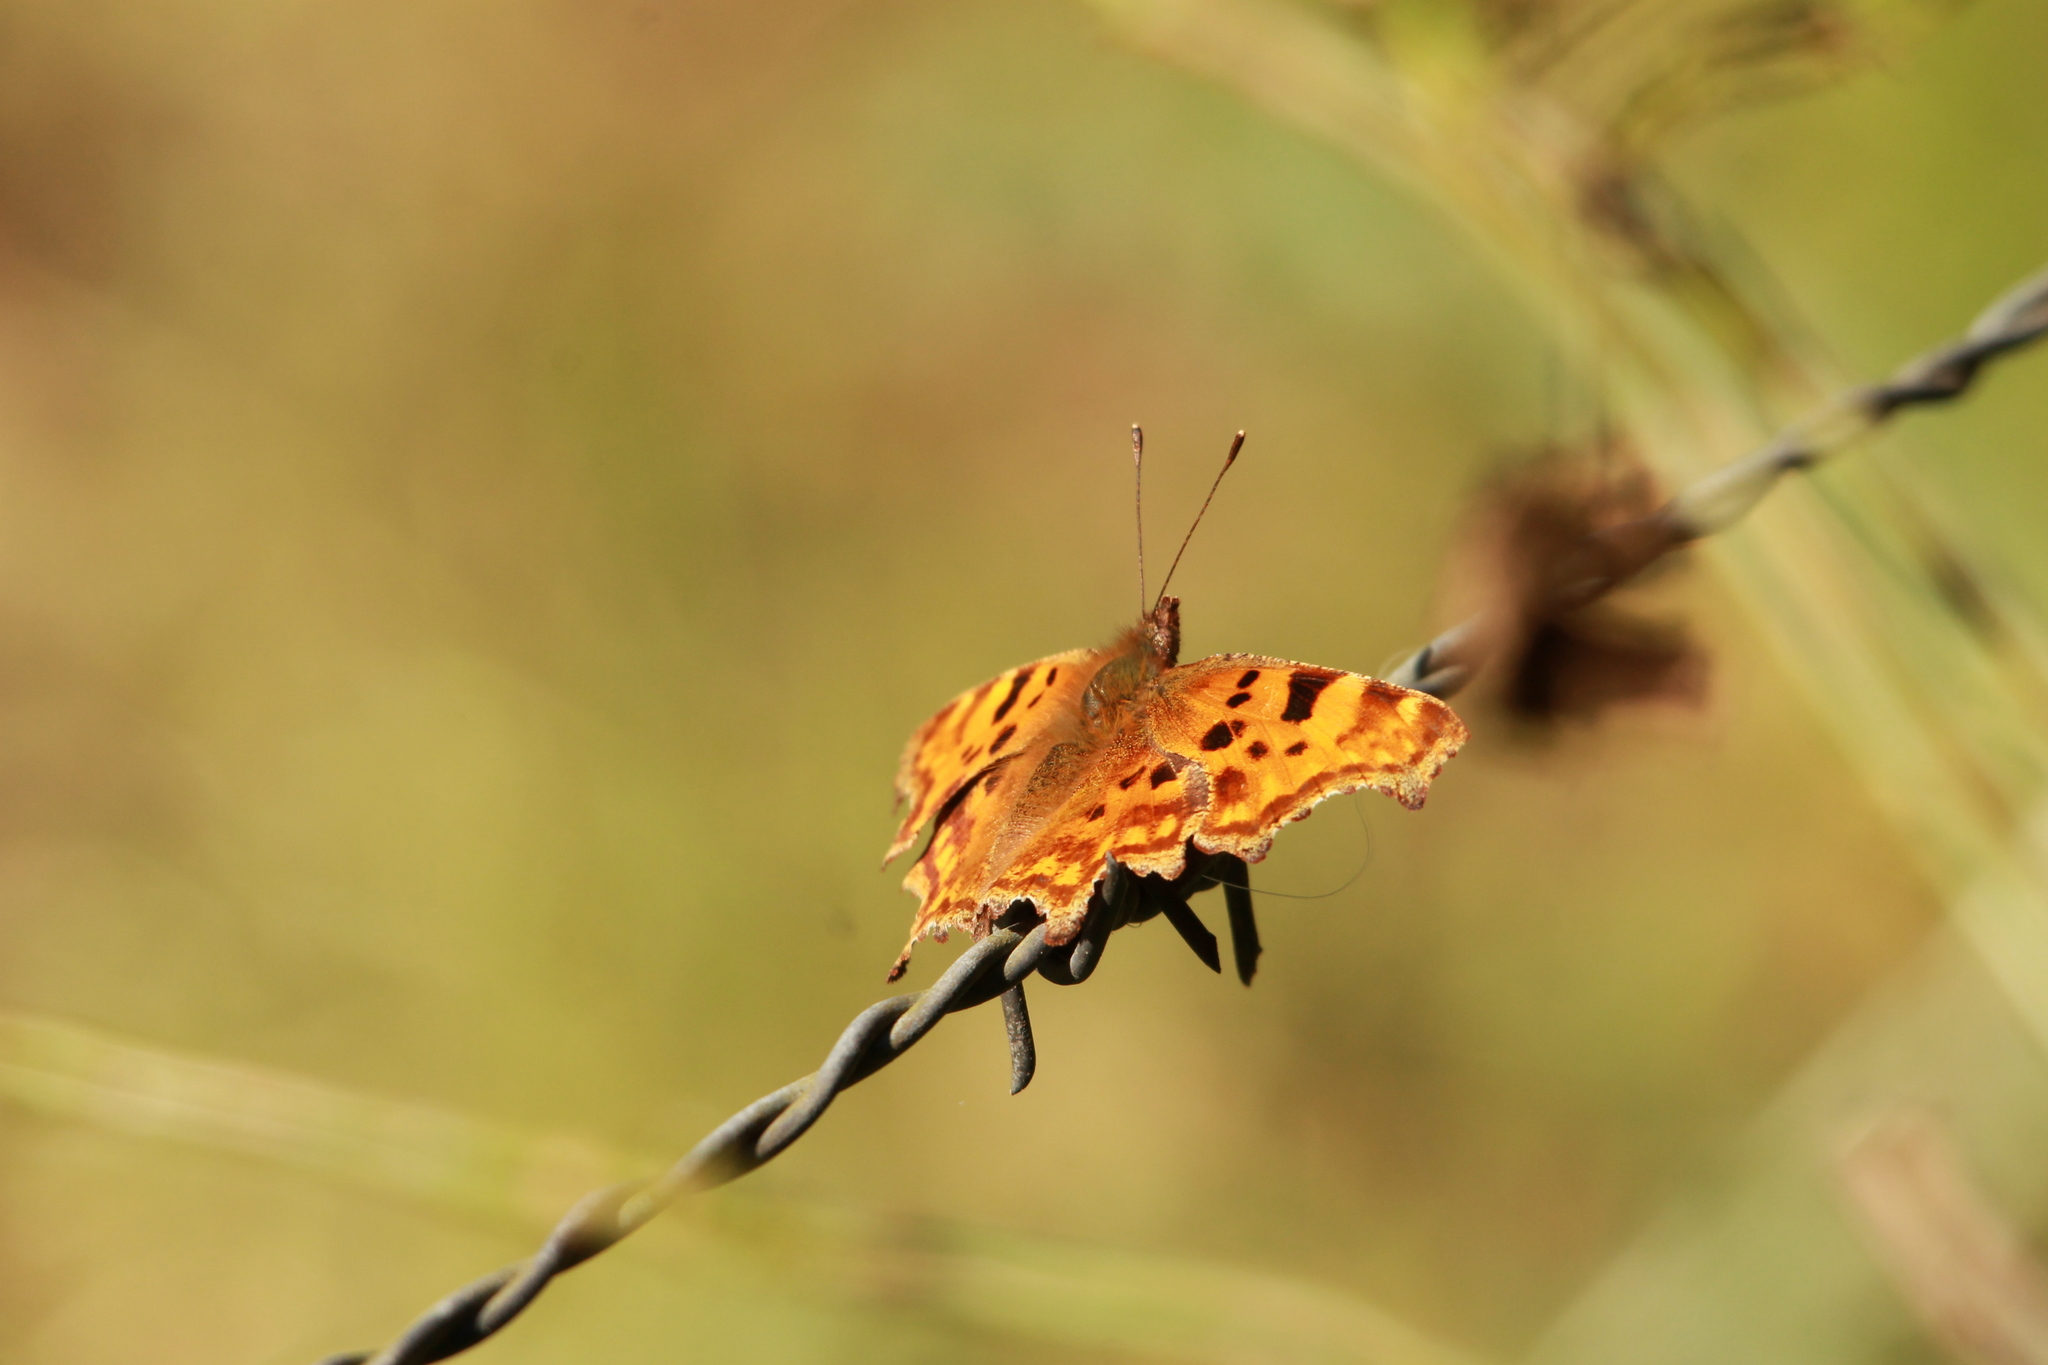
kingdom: Animalia
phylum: Arthropoda
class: Insecta
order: Lepidoptera
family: Nymphalidae
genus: Polygonia
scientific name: Polygonia c-album
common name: Comma
